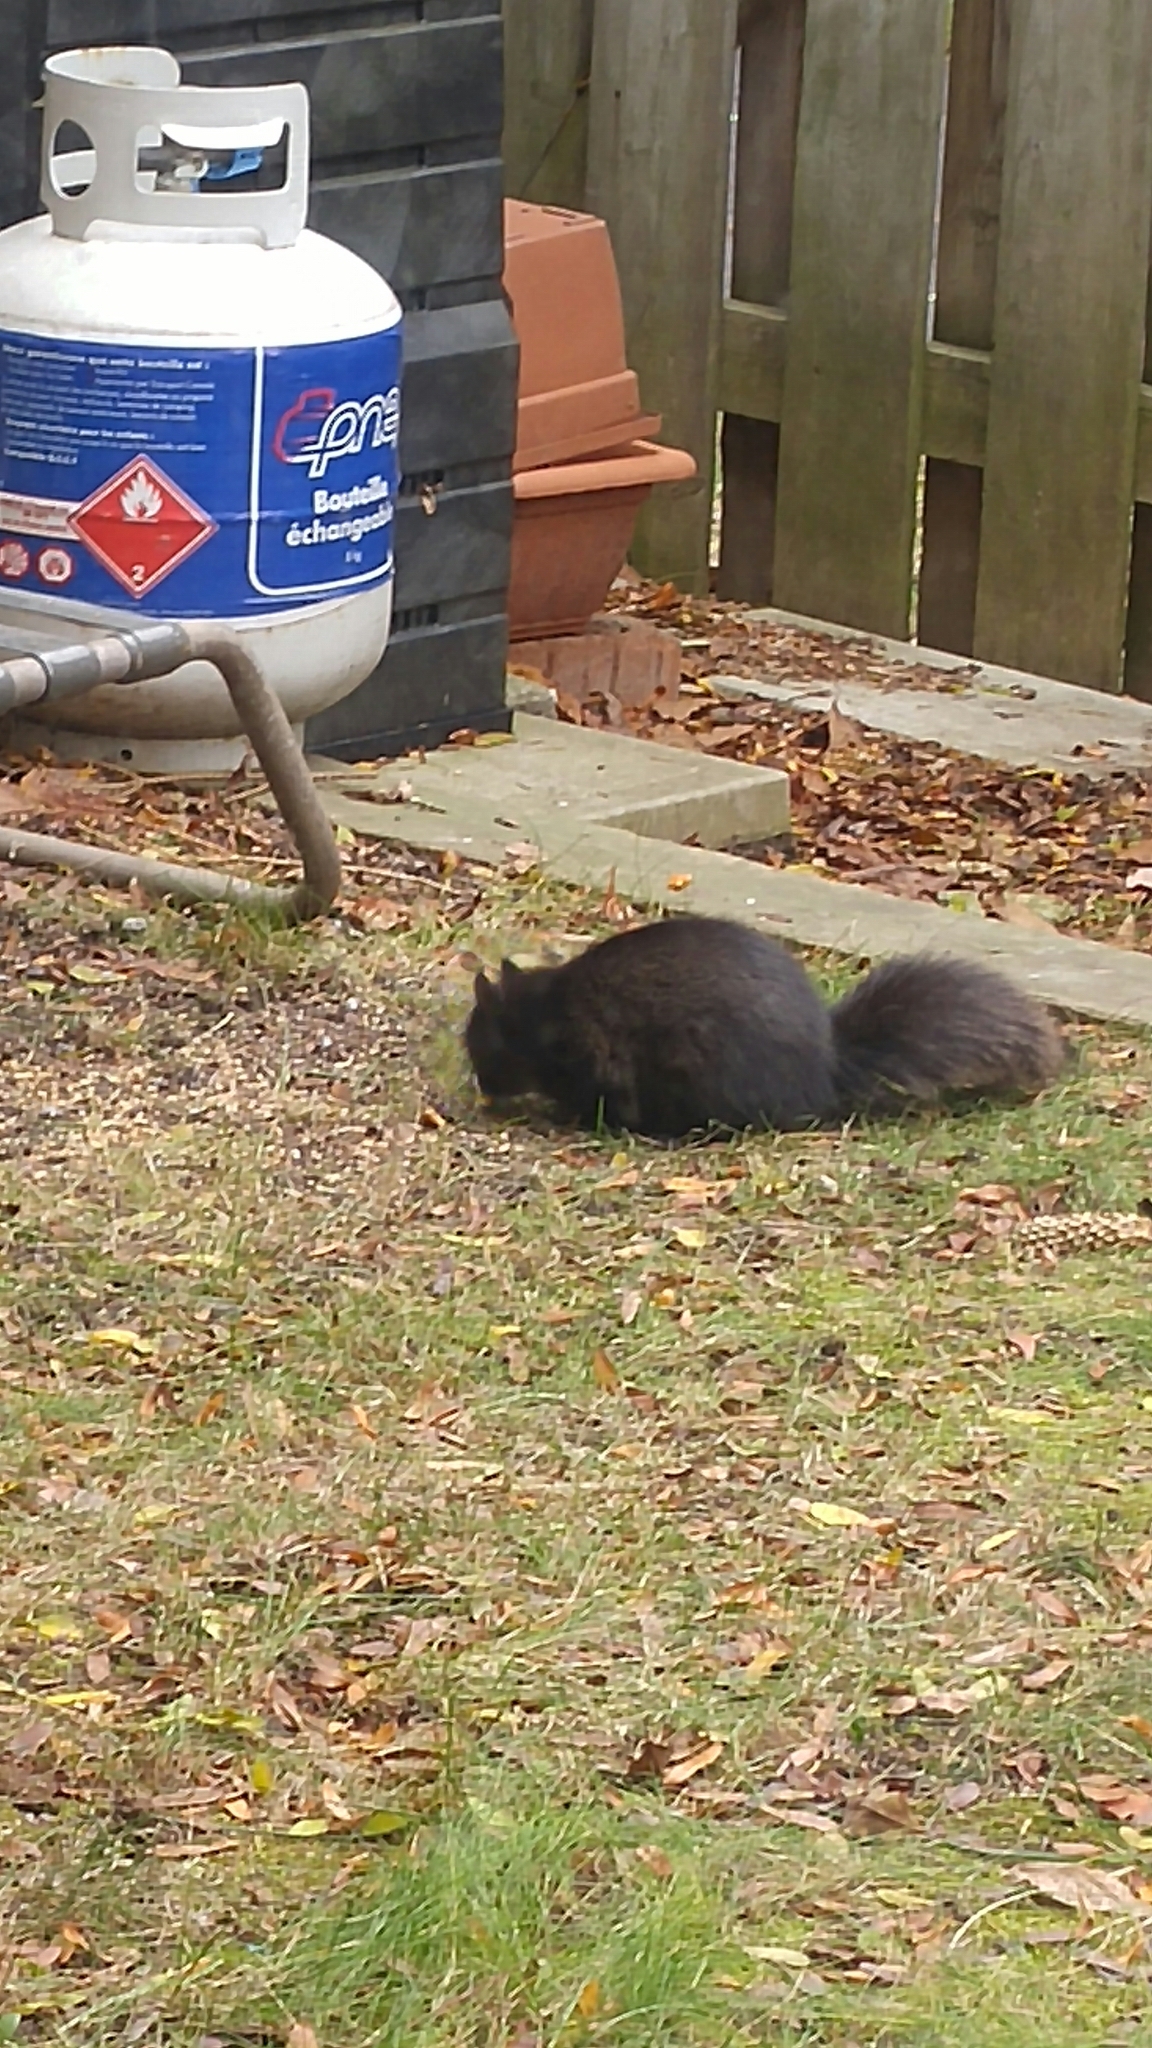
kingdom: Animalia
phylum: Chordata
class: Mammalia
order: Rodentia
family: Sciuridae
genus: Sciurus
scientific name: Sciurus carolinensis
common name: Eastern gray squirrel
